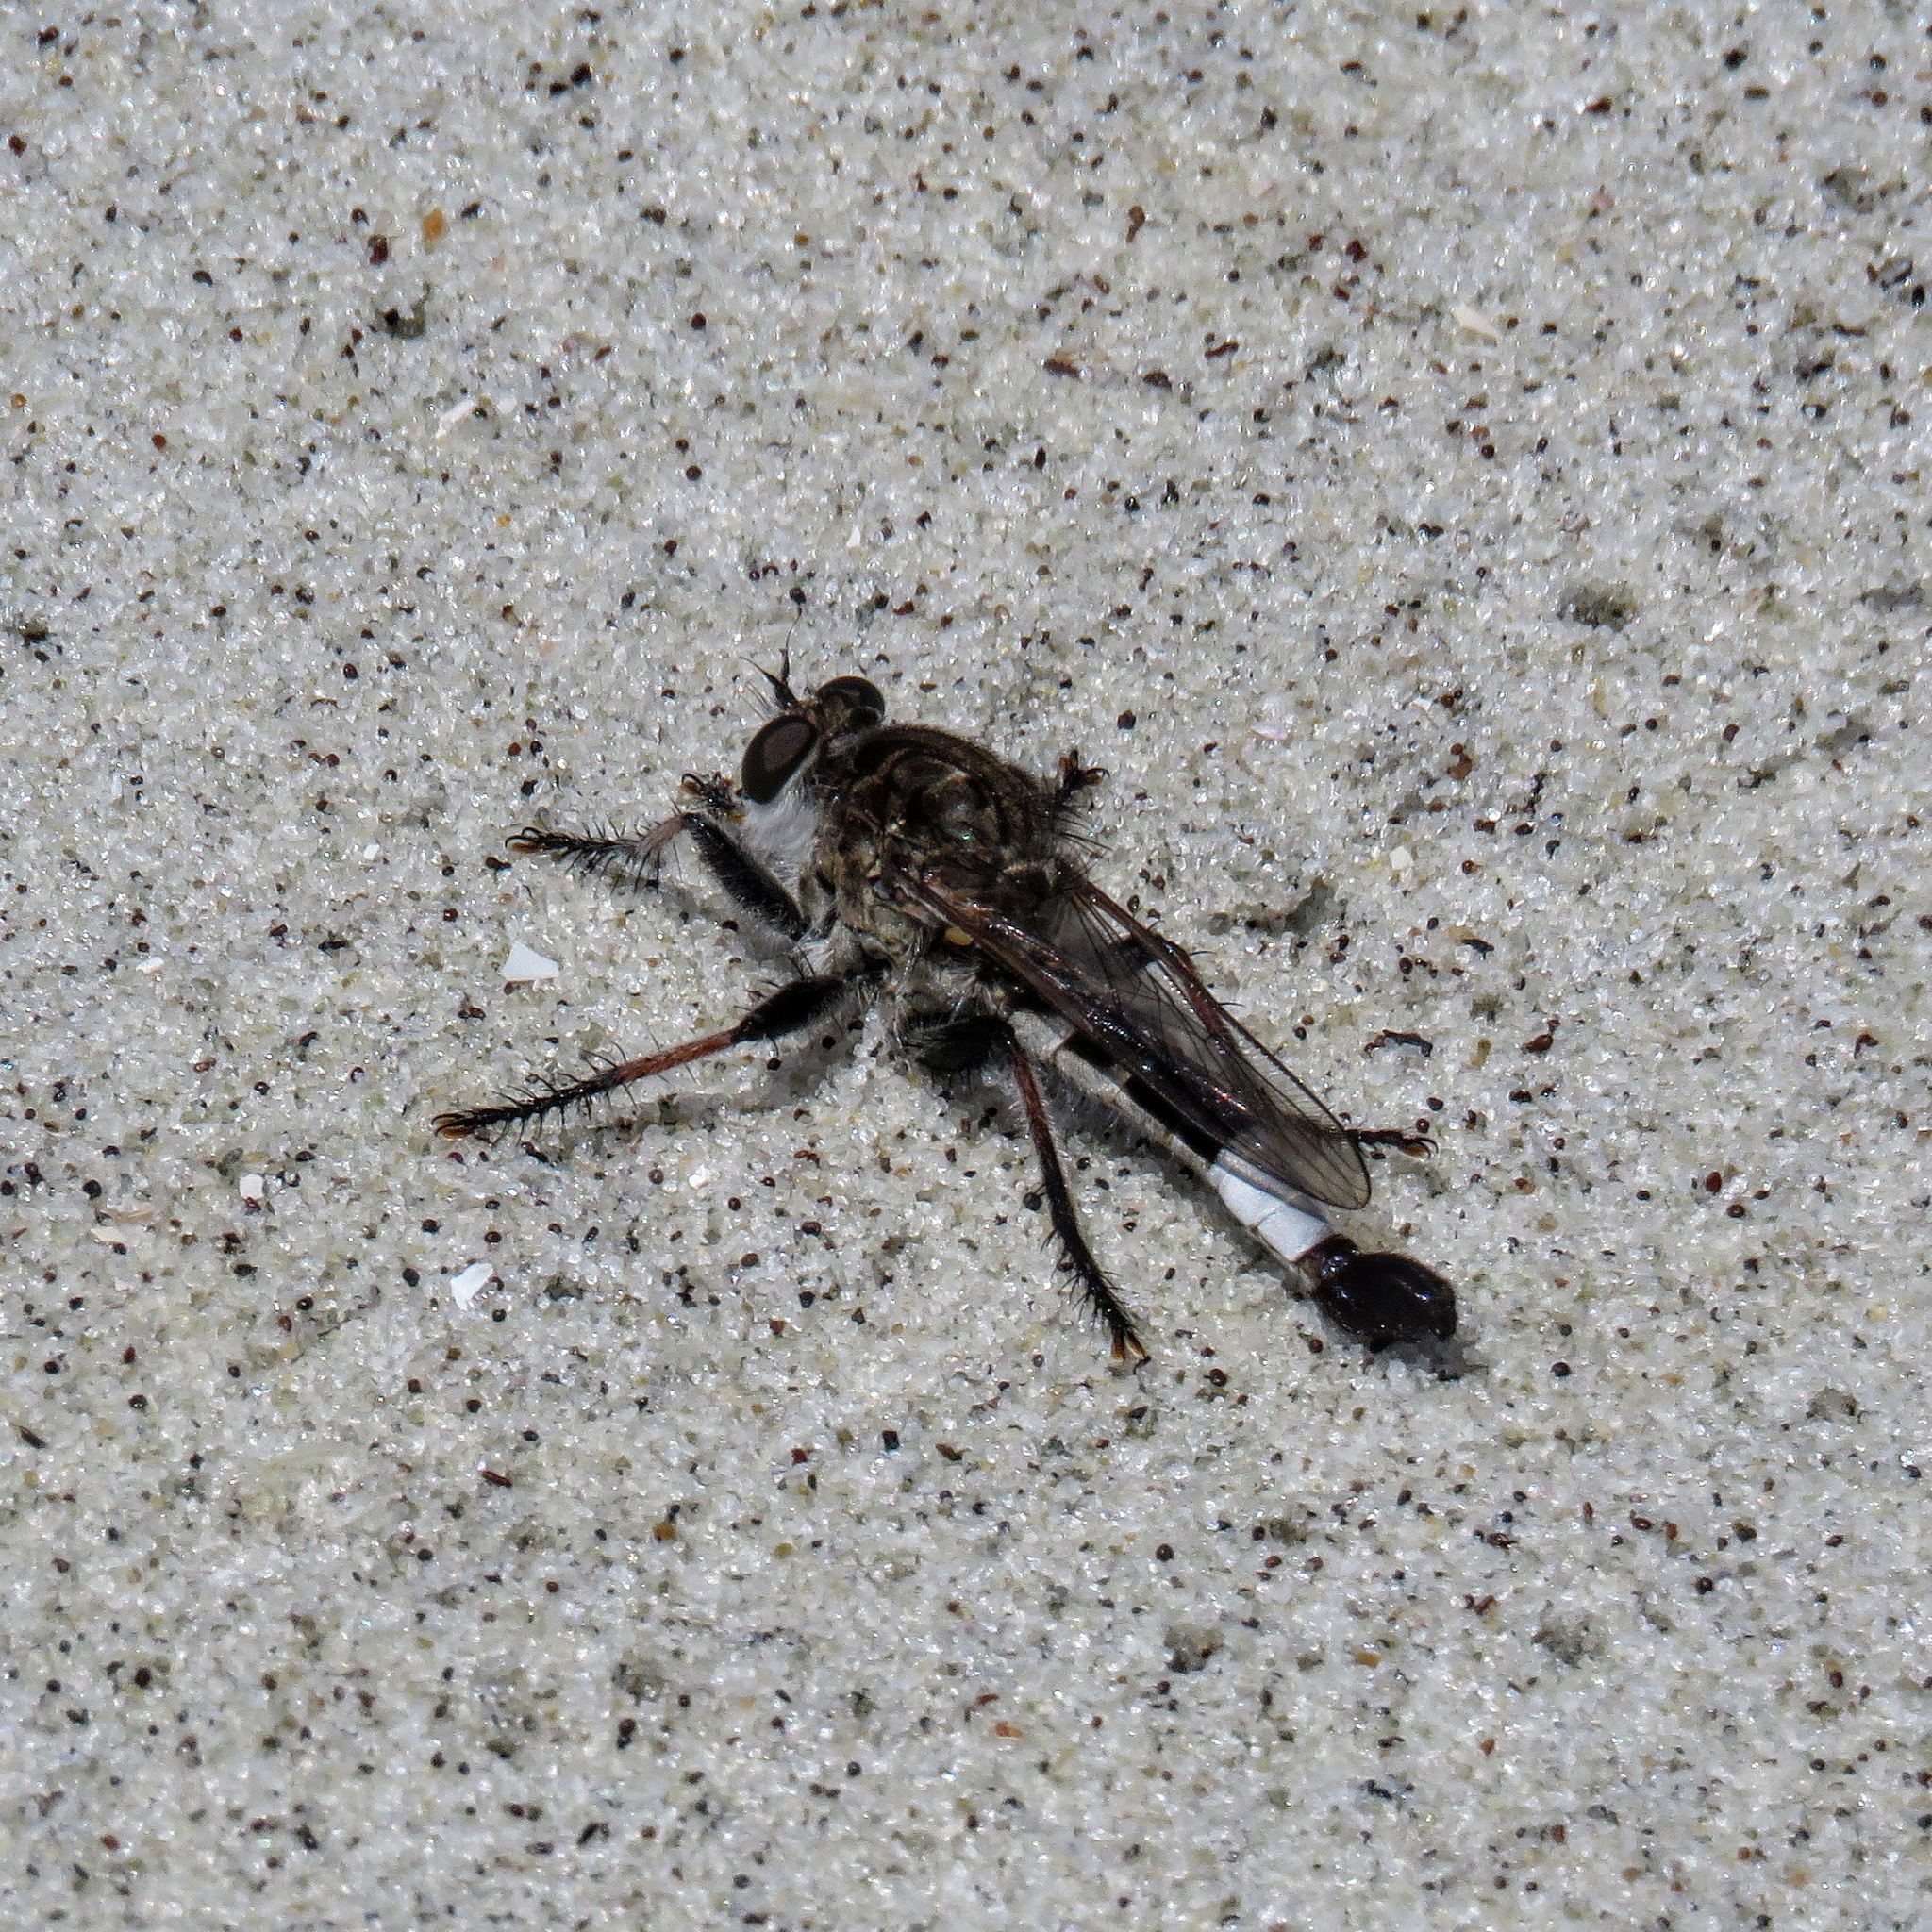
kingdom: Animalia
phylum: Arthropoda
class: Insecta
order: Diptera
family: Asilidae
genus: Efferia
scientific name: Efferia albibarbis
